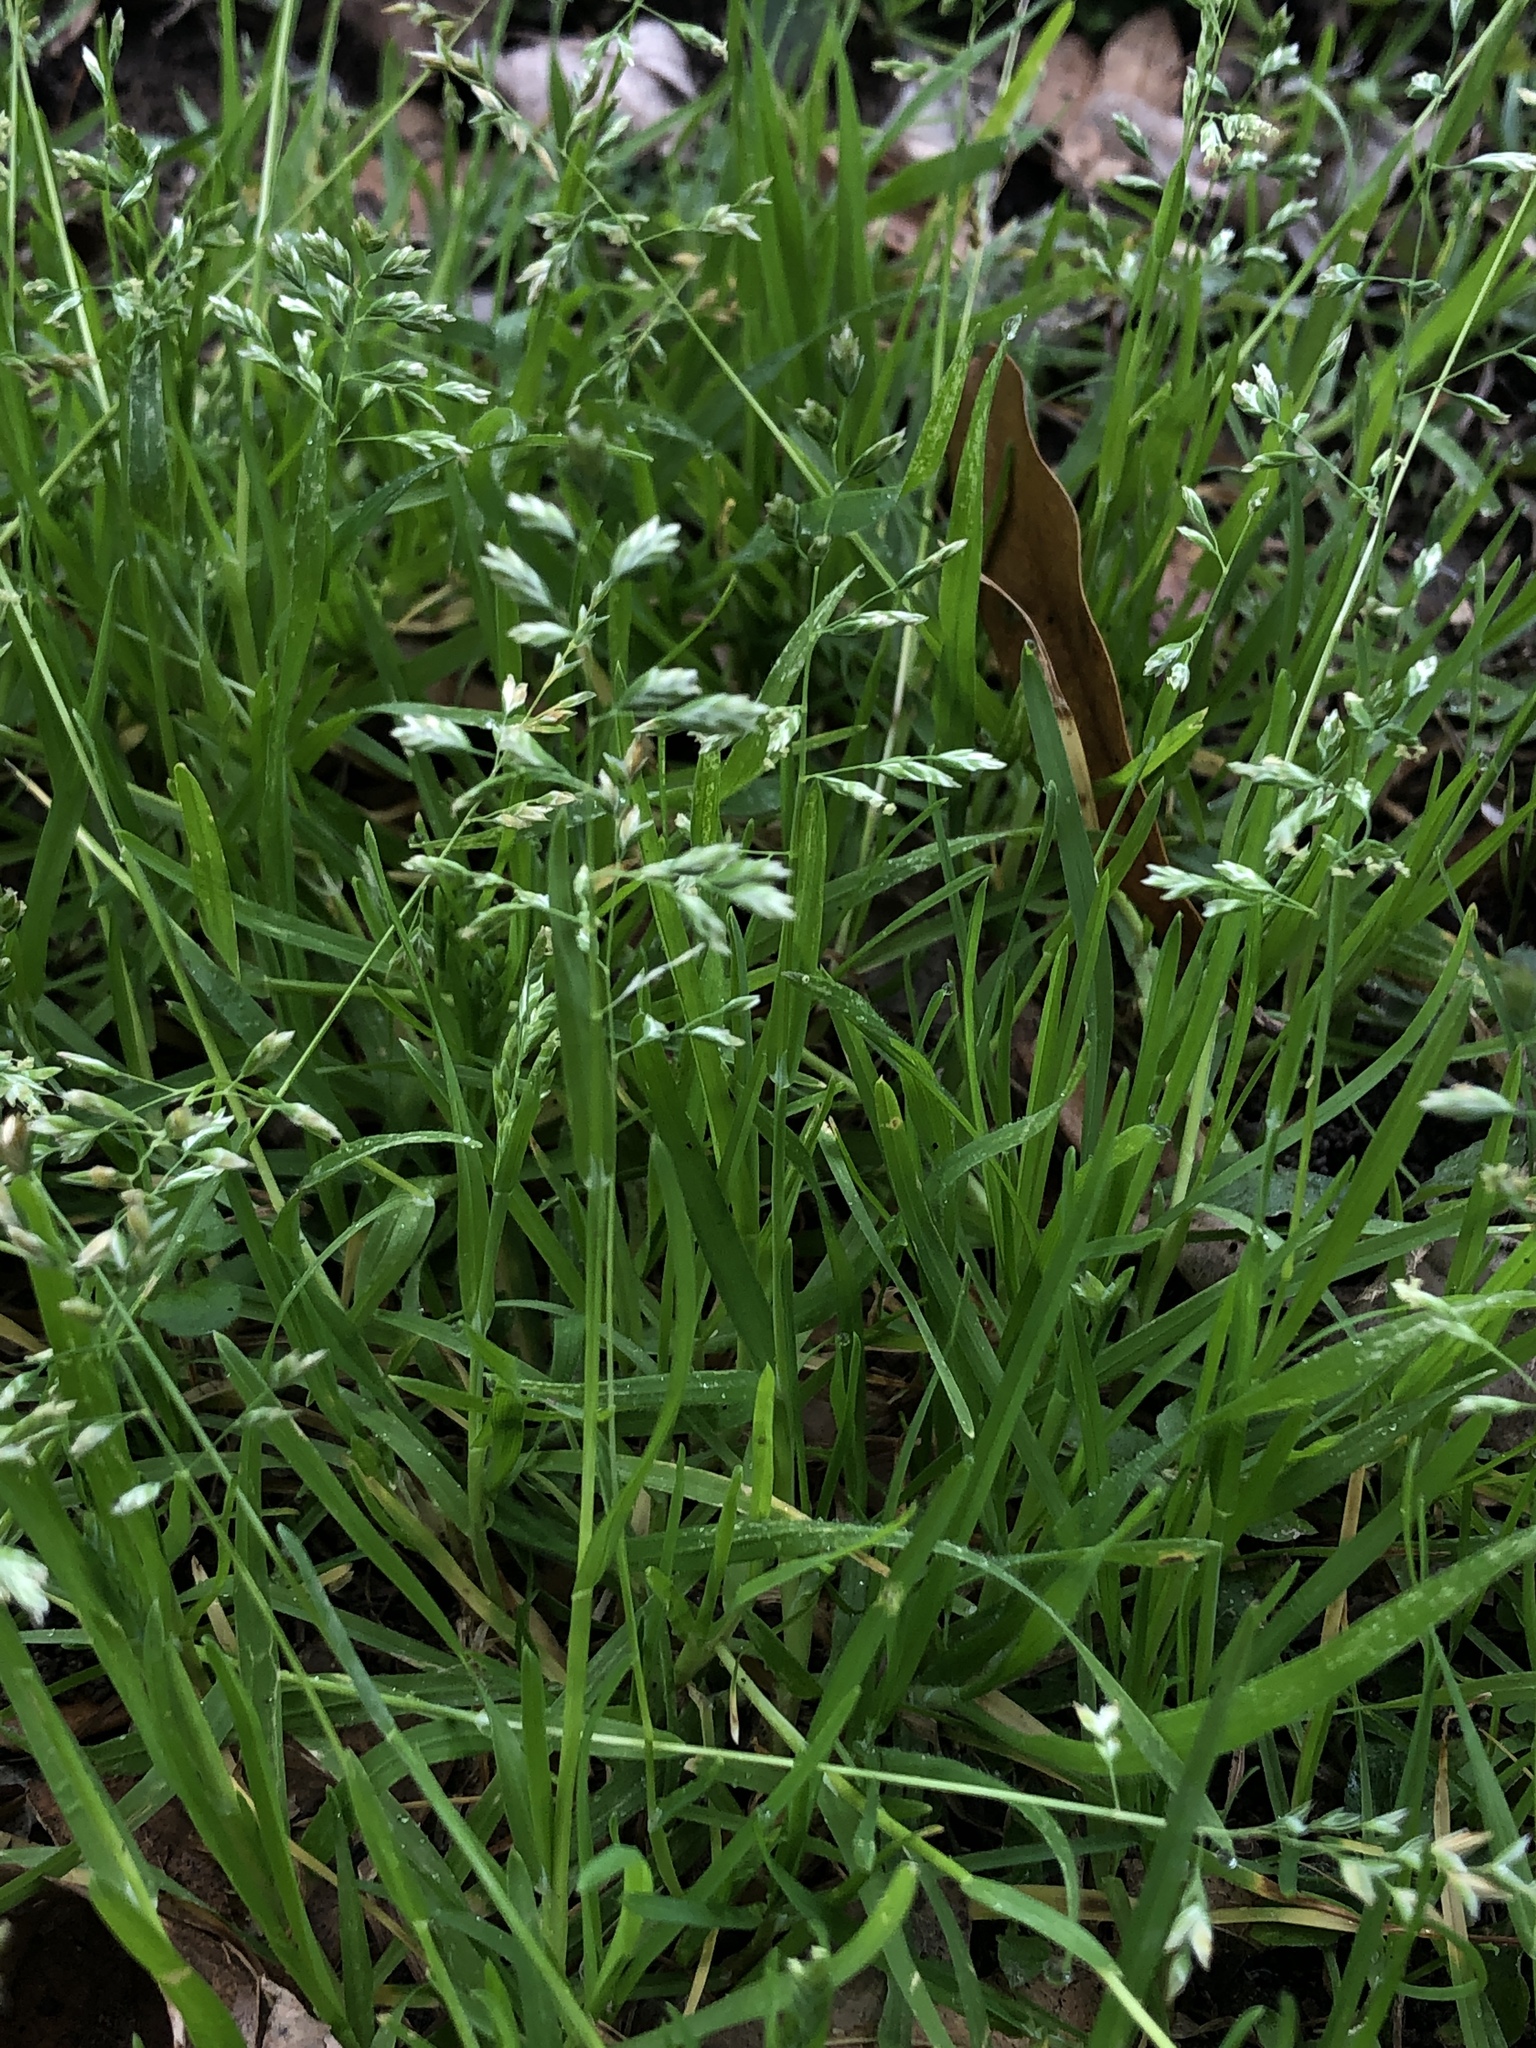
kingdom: Plantae
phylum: Tracheophyta
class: Liliopsida
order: Poales
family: Poaceae
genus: Poa
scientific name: Poa annua
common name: Annual bluegrass
